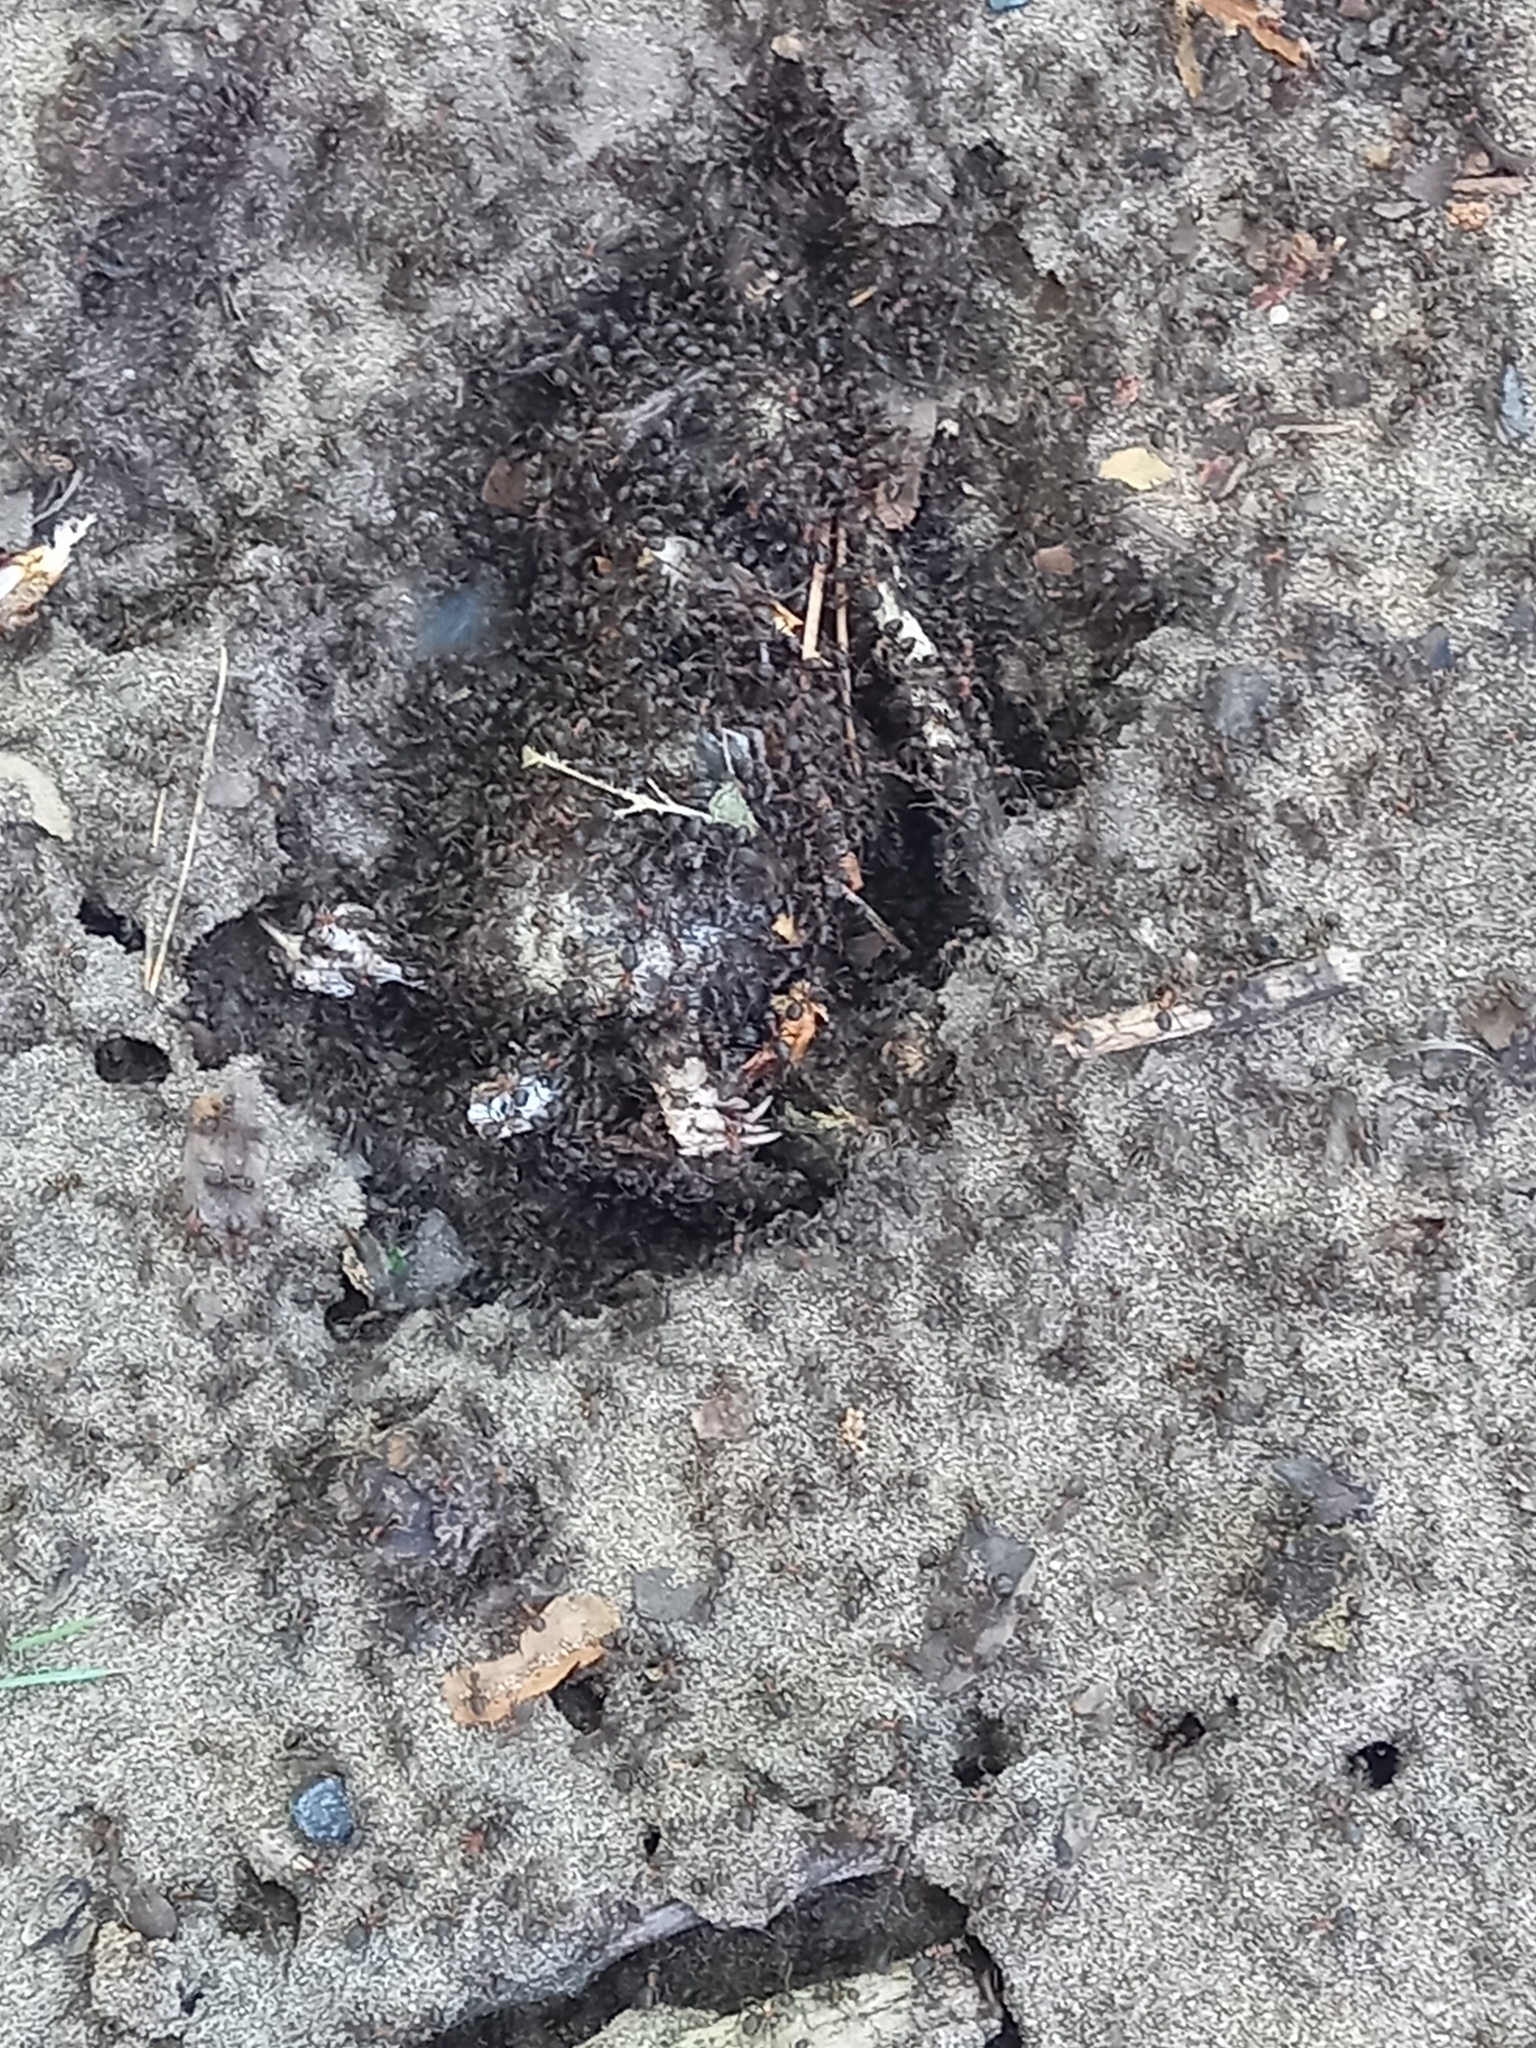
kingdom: Animalia
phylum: Chordata
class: Mammalia
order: Soricomorpha
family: Talpidae
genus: Talpa
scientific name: Talpa europaea
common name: European mole
